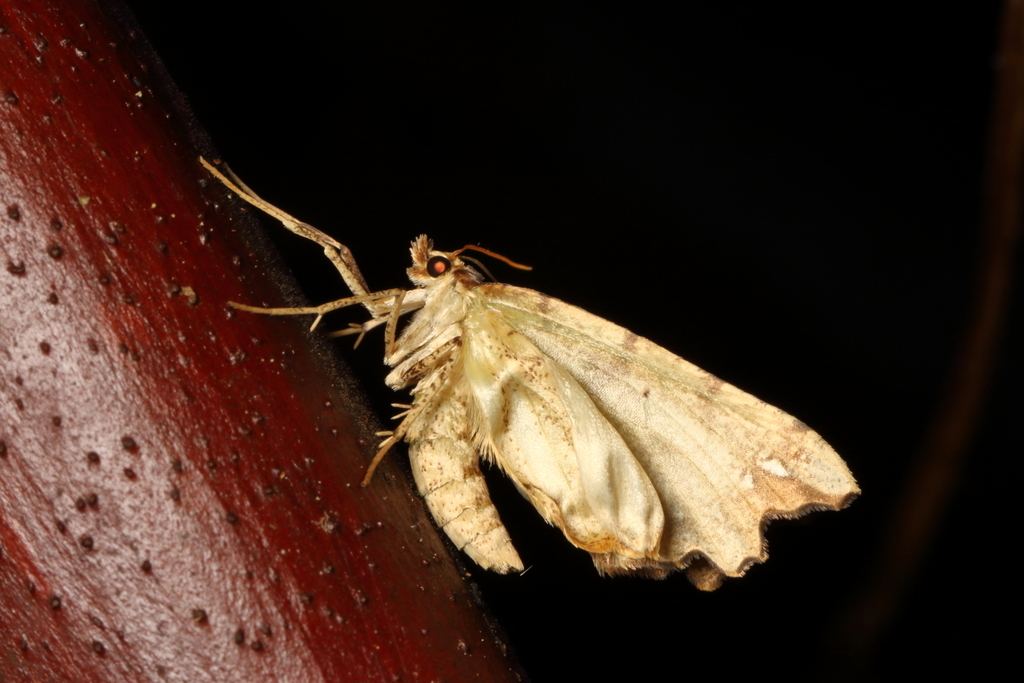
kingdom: Animalia
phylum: Arthropoda
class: Insecta
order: Lepidoptera
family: Geometridae
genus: Chalastra
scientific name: Chalastra pellurgata
